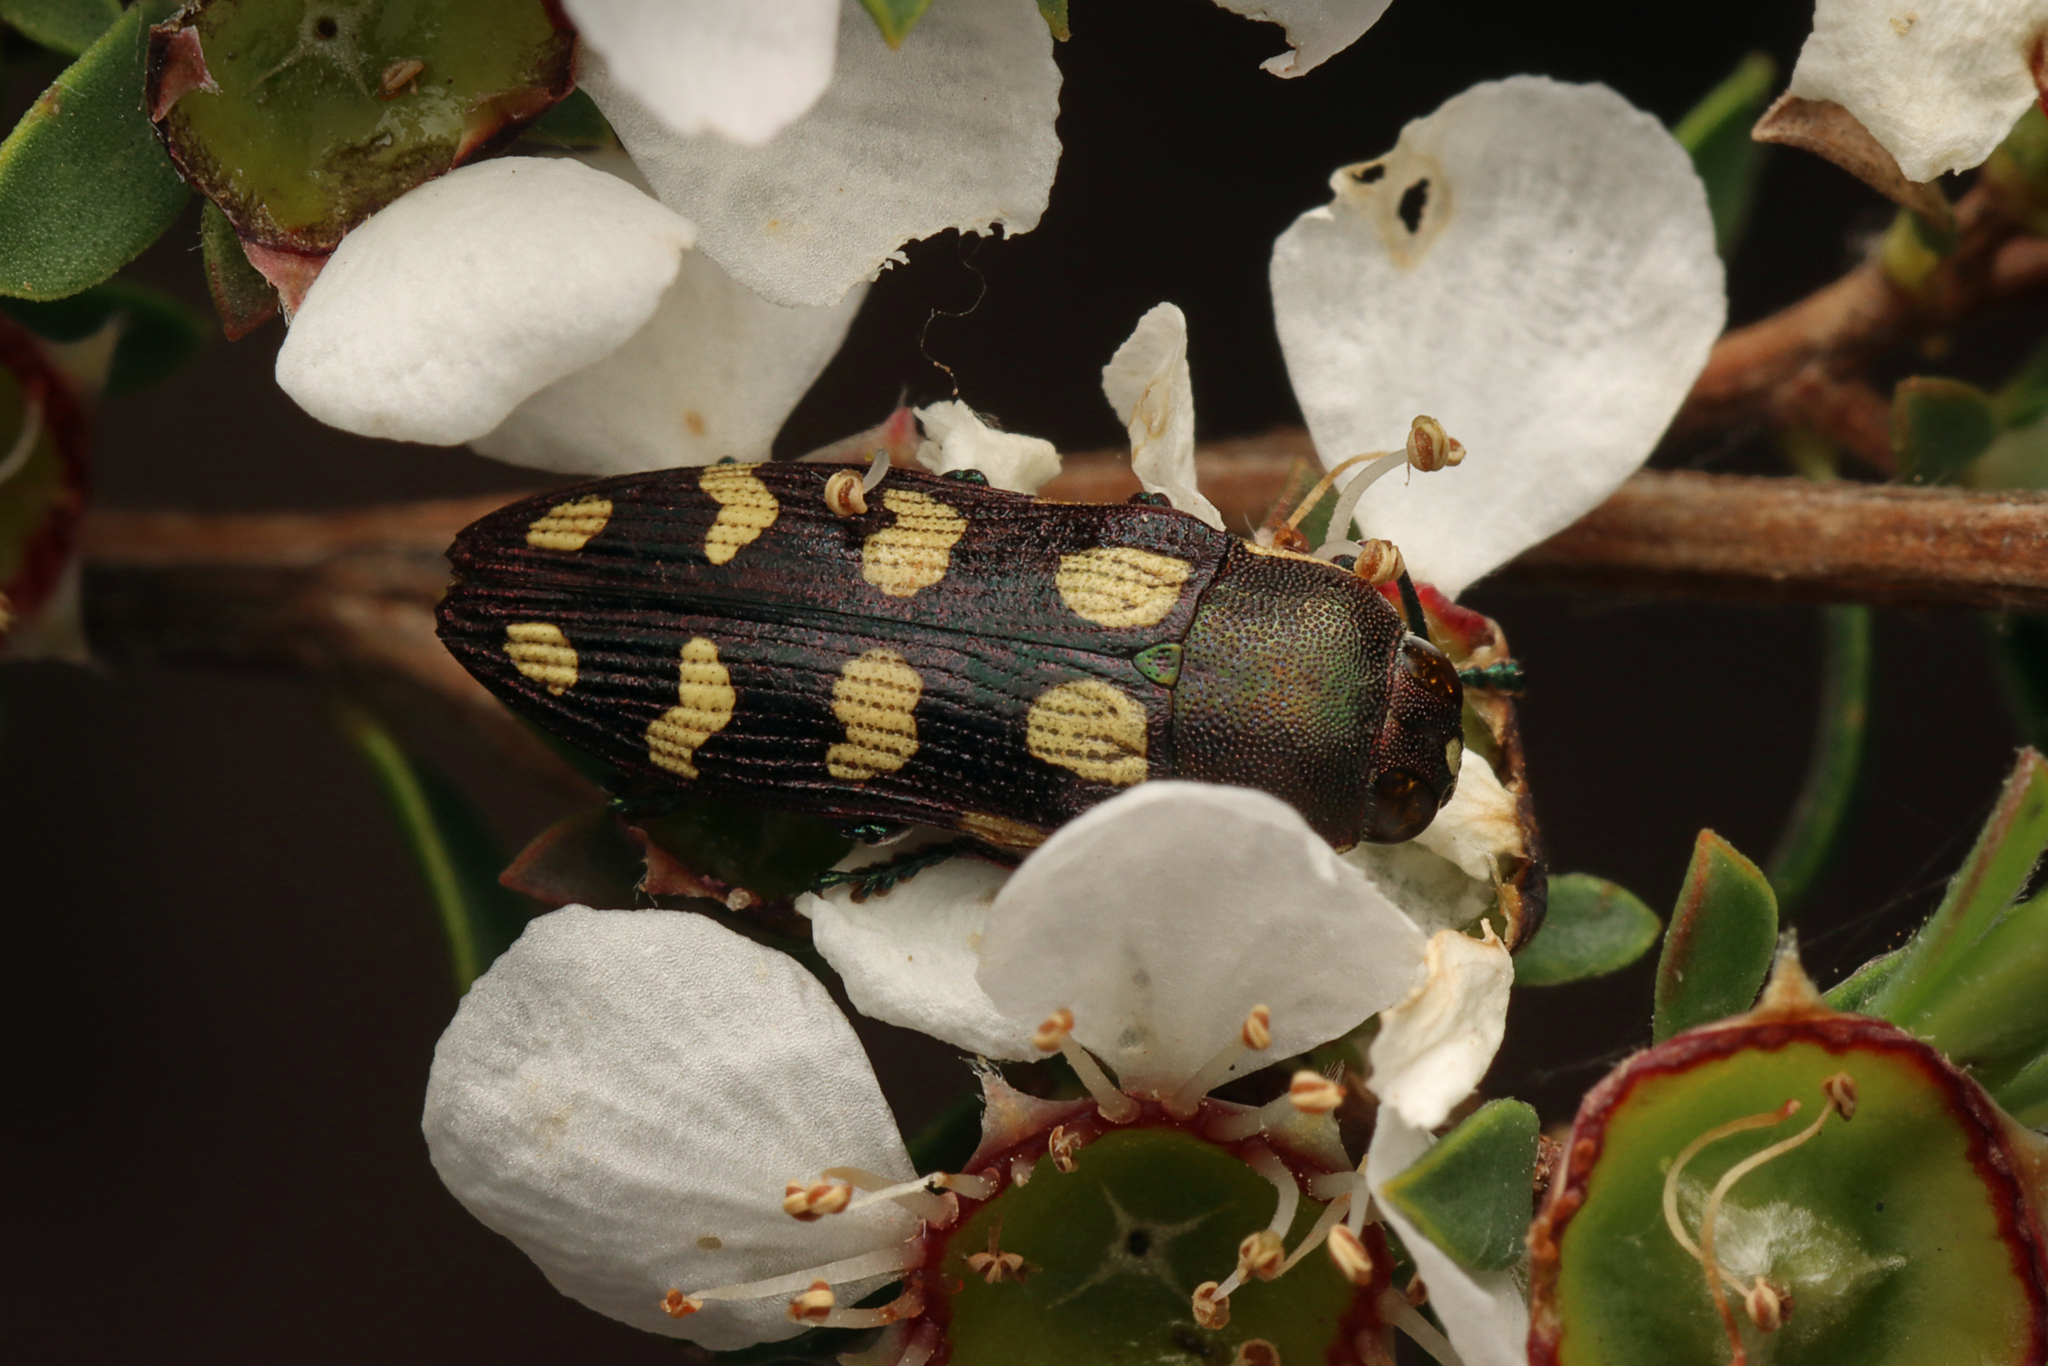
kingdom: Animalia
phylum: Arthropoda
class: Insecta
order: Coleoptera
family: Buprestidae
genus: Castiarina
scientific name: Castiarina decemmaculata
